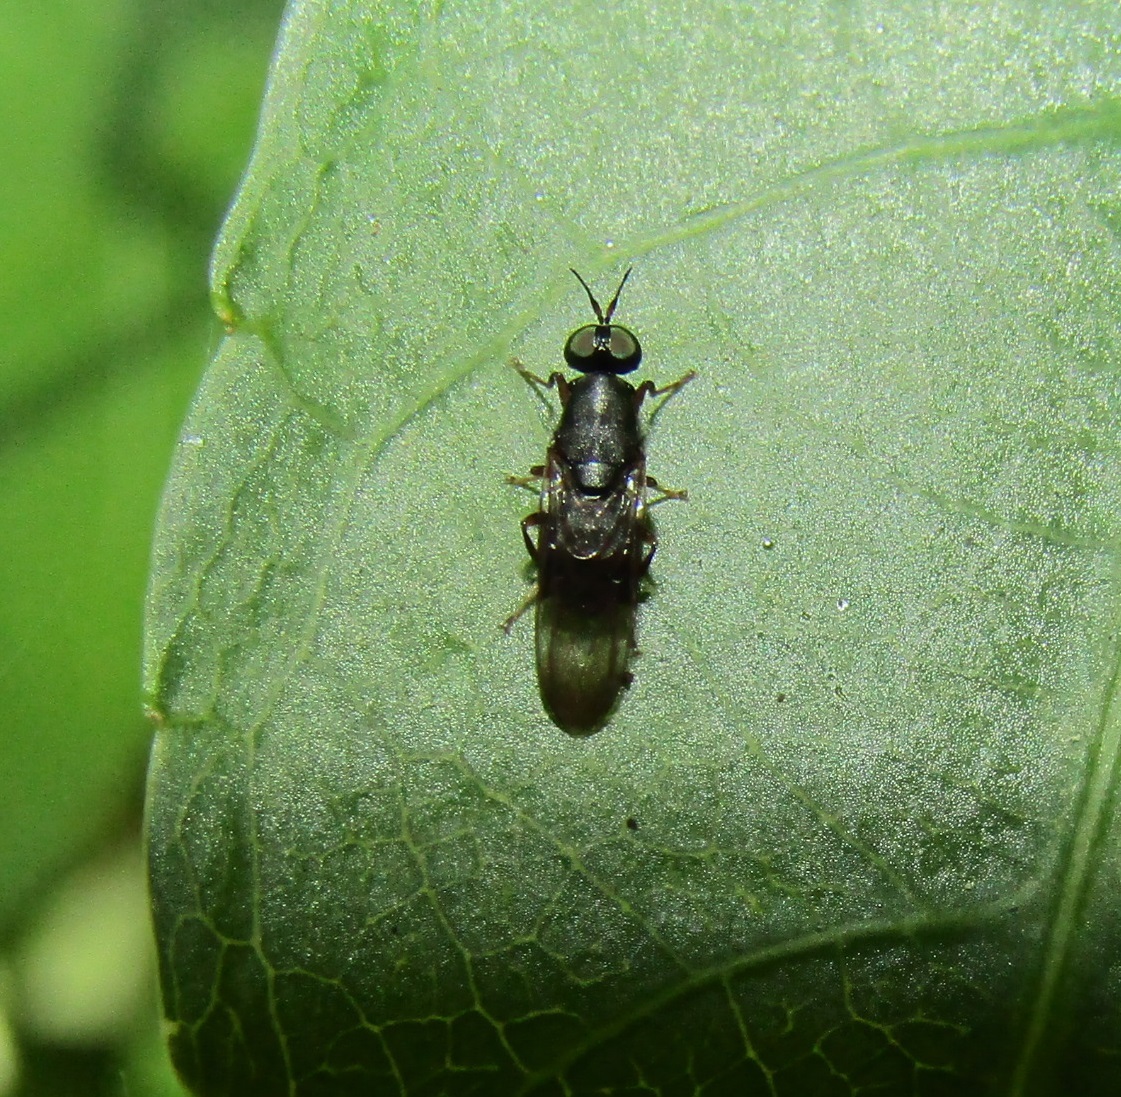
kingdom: Animalia
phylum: Arthropoda
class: Insecta
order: Diptera
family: Stratiomyidae
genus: Dysbiota
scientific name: Dysbiota peregrina
